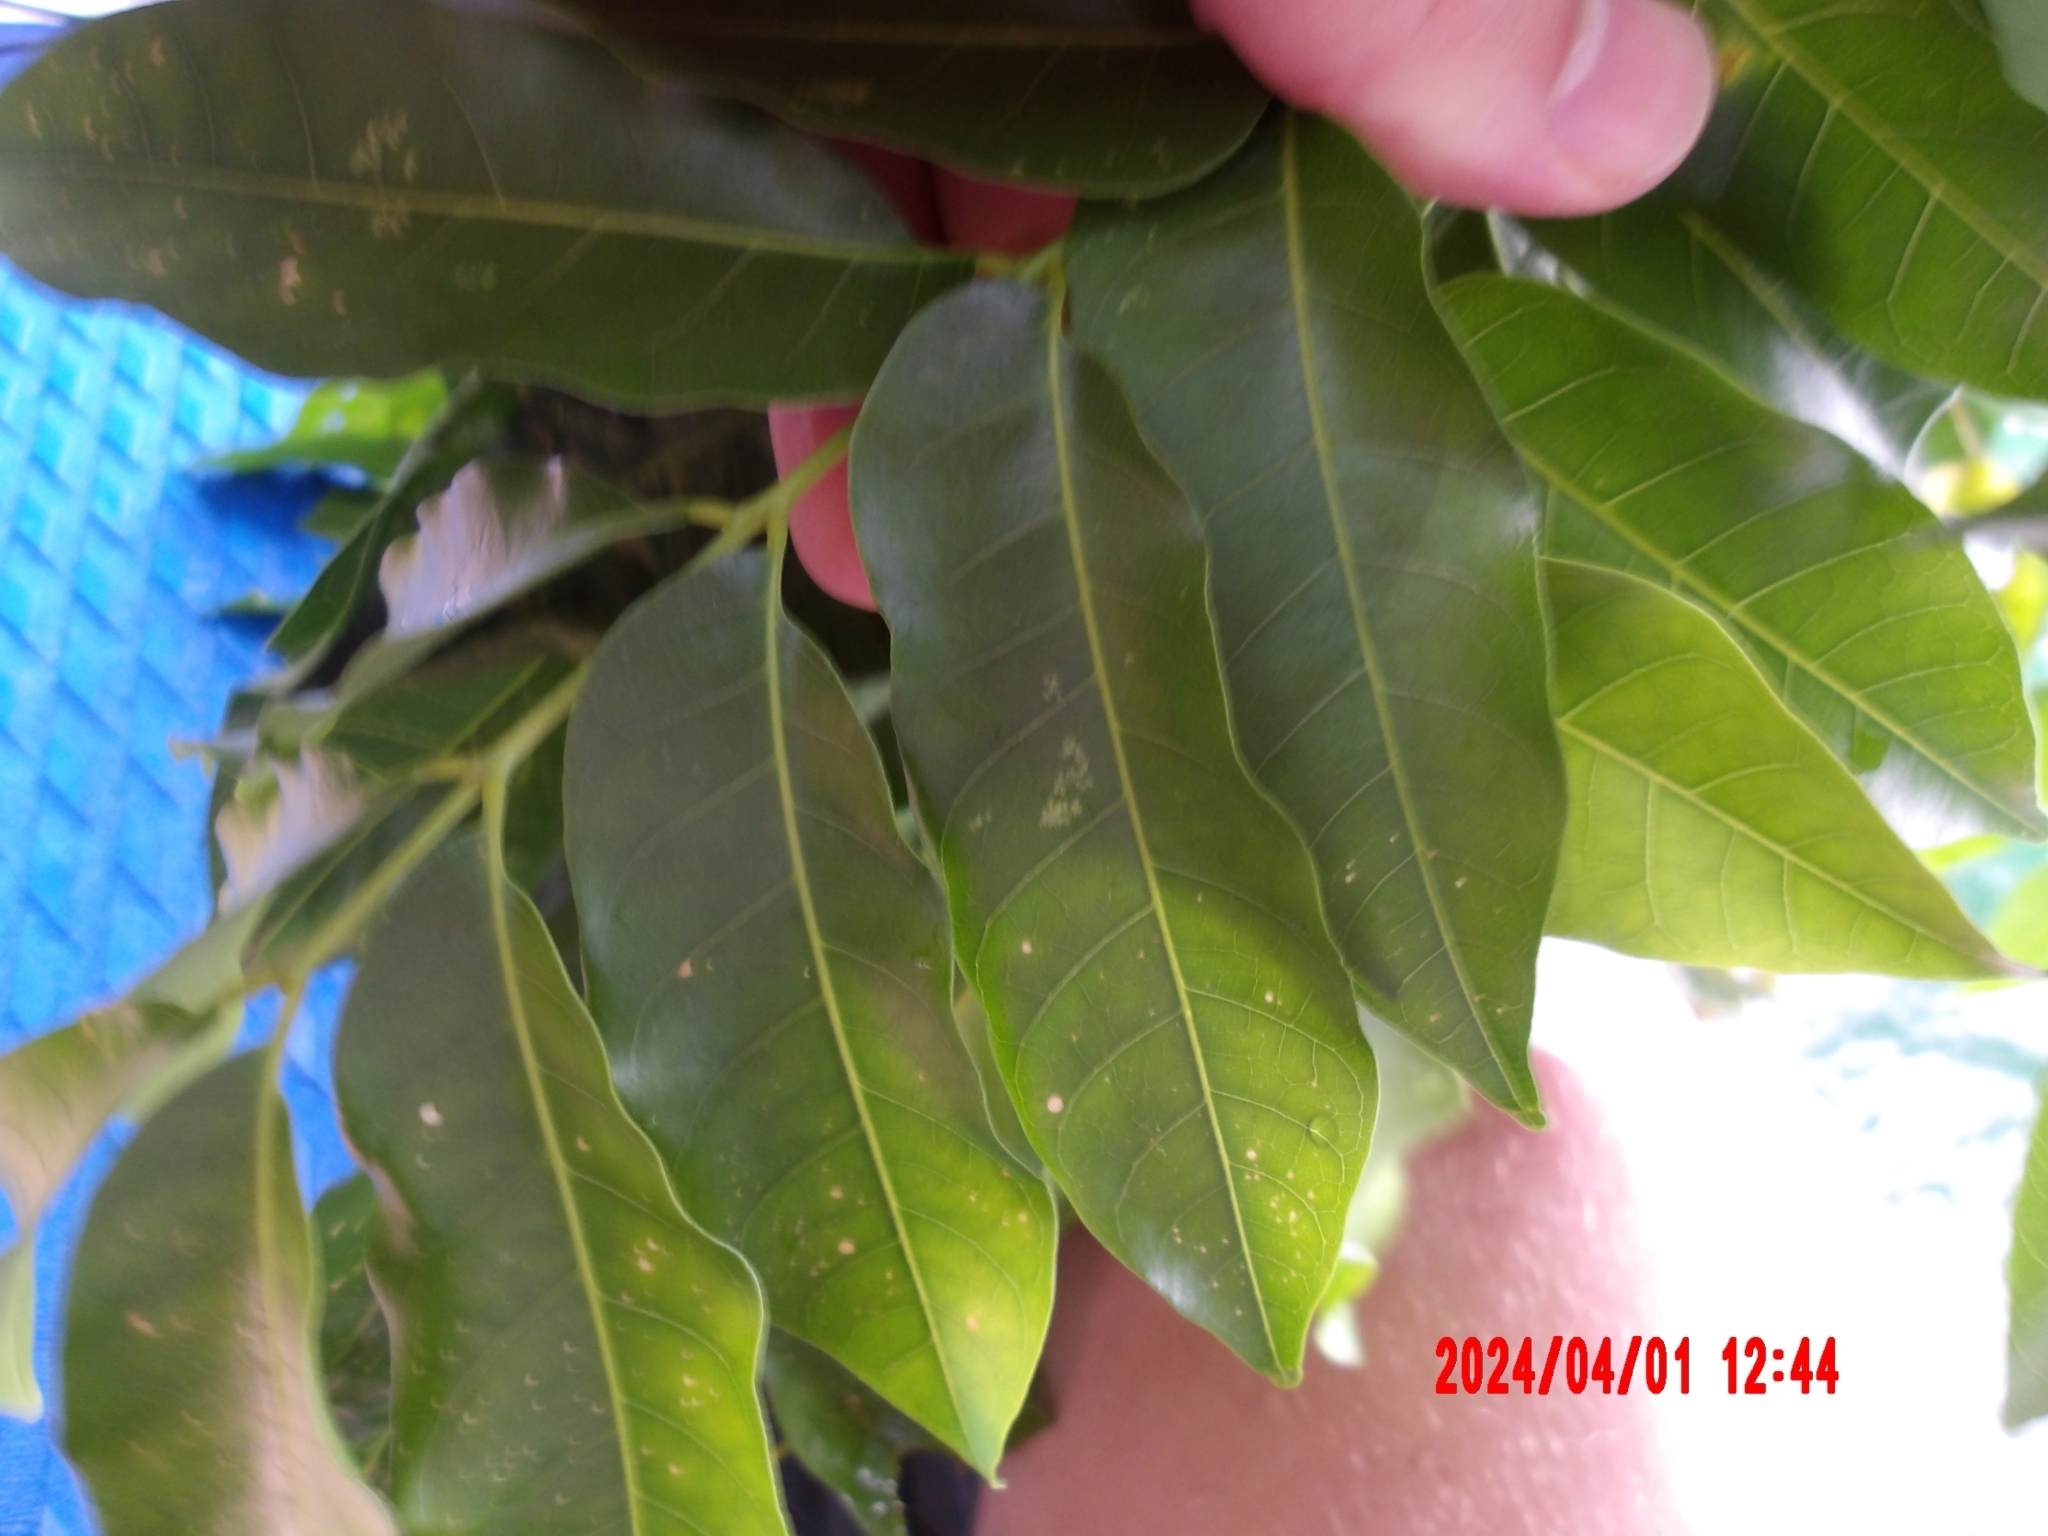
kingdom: Plantae
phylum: Tracheophyta
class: Magnoliopsida
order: Sapindales
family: Meliaceae
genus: Didymocheton
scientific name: Didymocheton mollis
